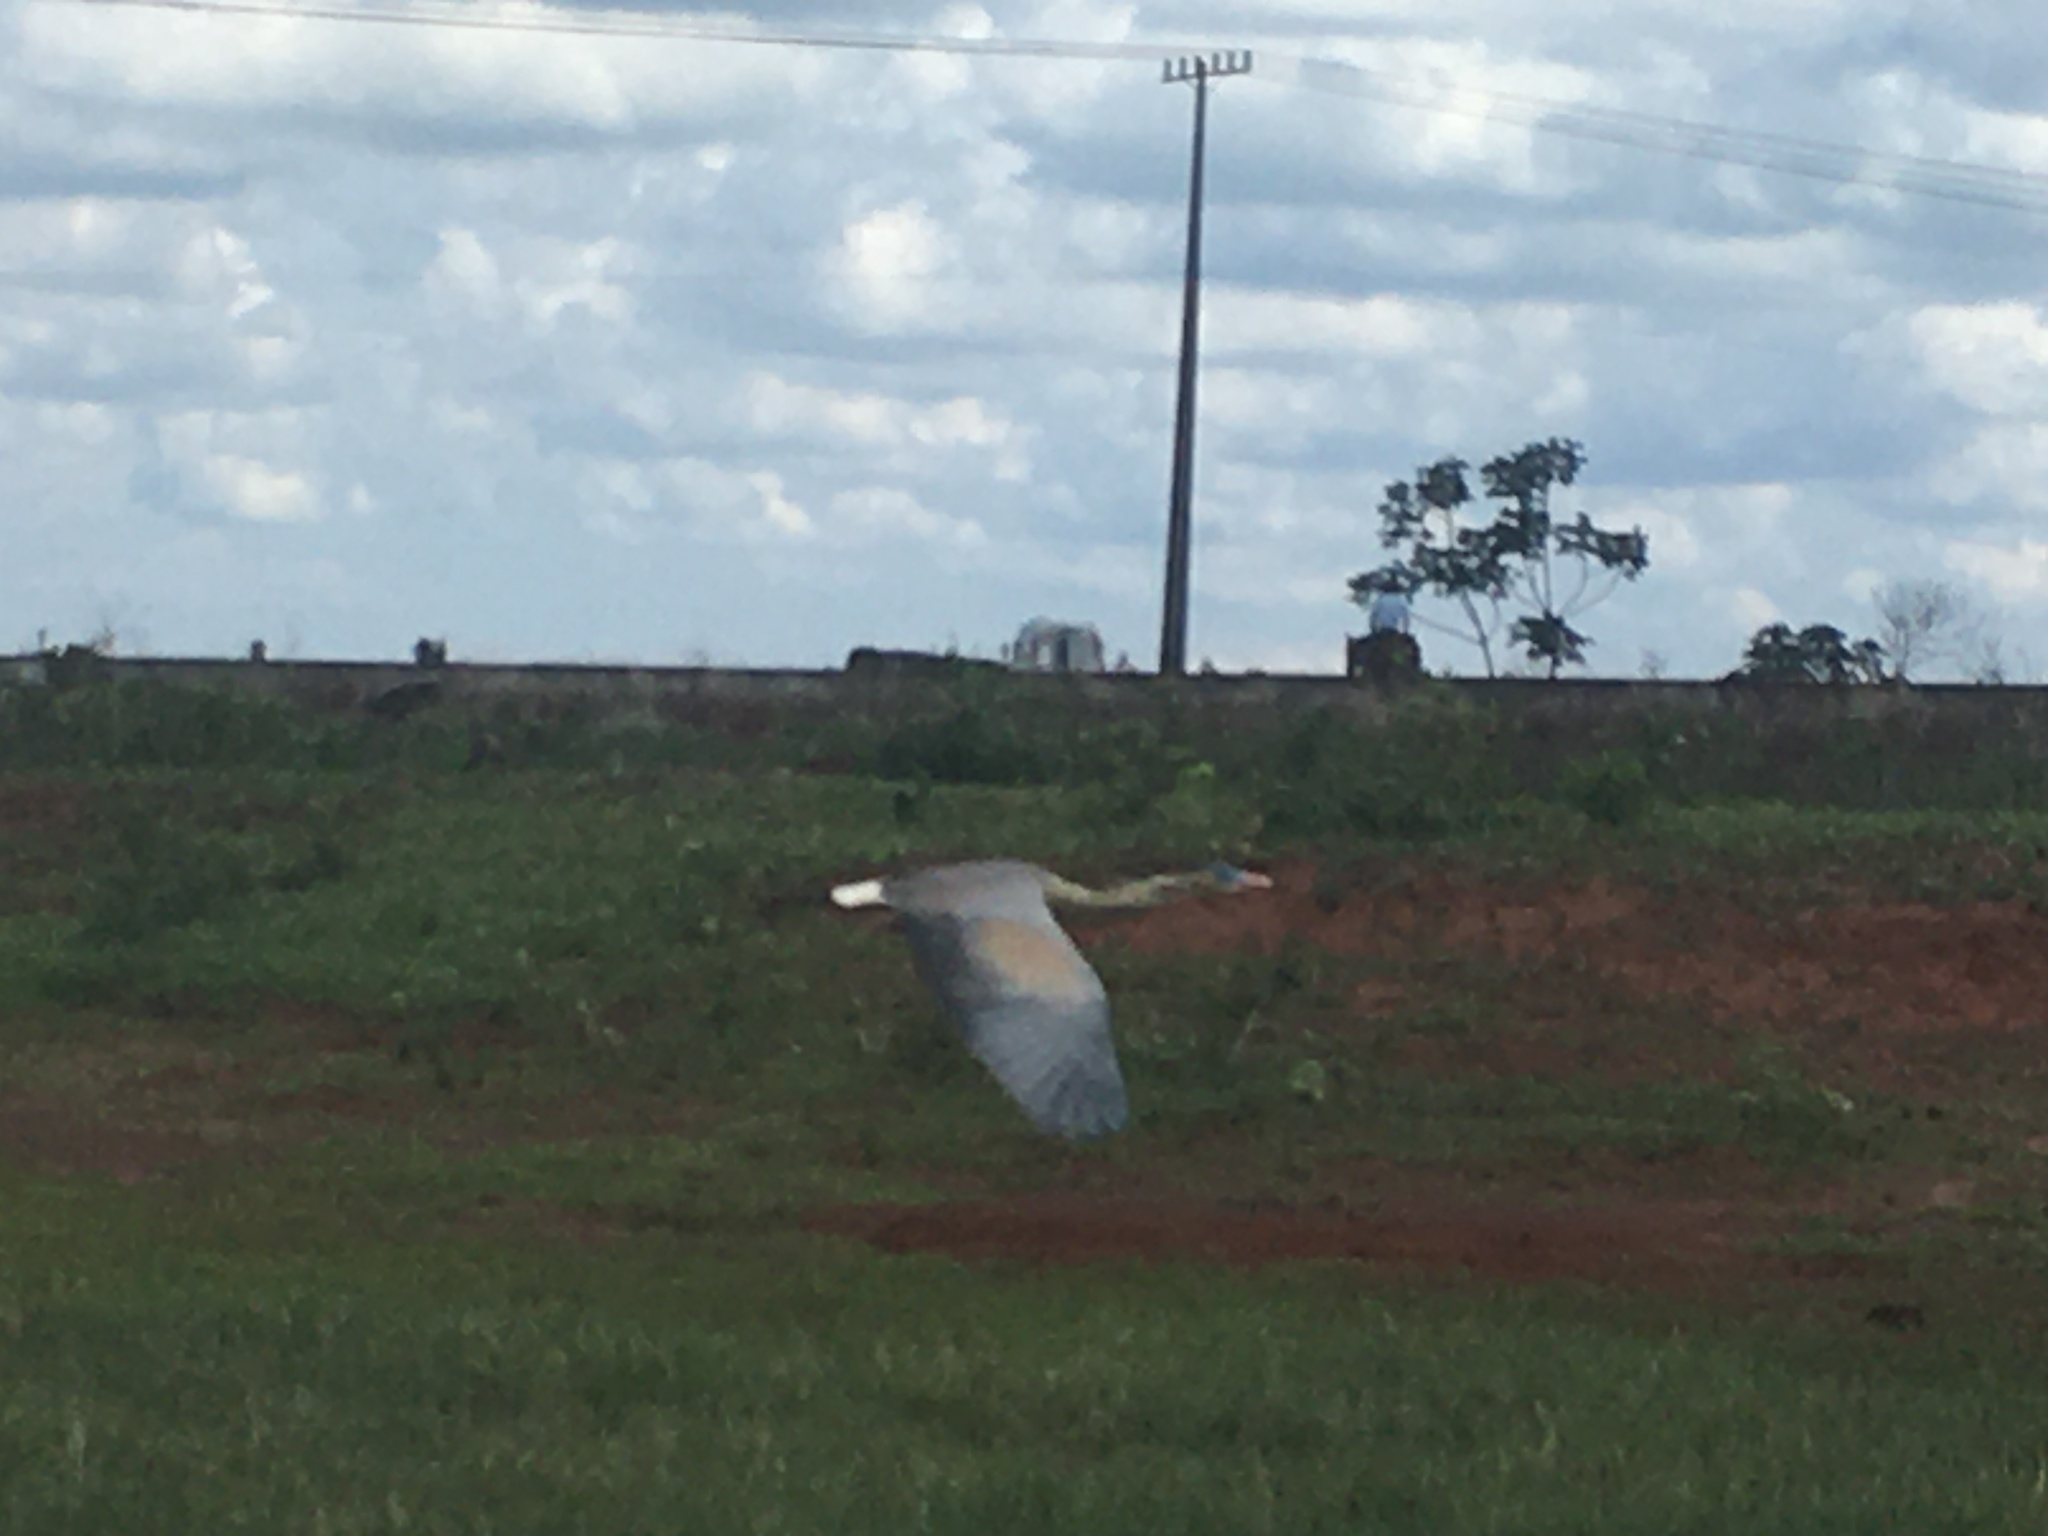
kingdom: Animalia
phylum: Chordata
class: Aves
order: Pelecaniformes
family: Ardeidae
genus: Syrigma
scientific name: Syrigma sibilatrix
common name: Whistling heron
